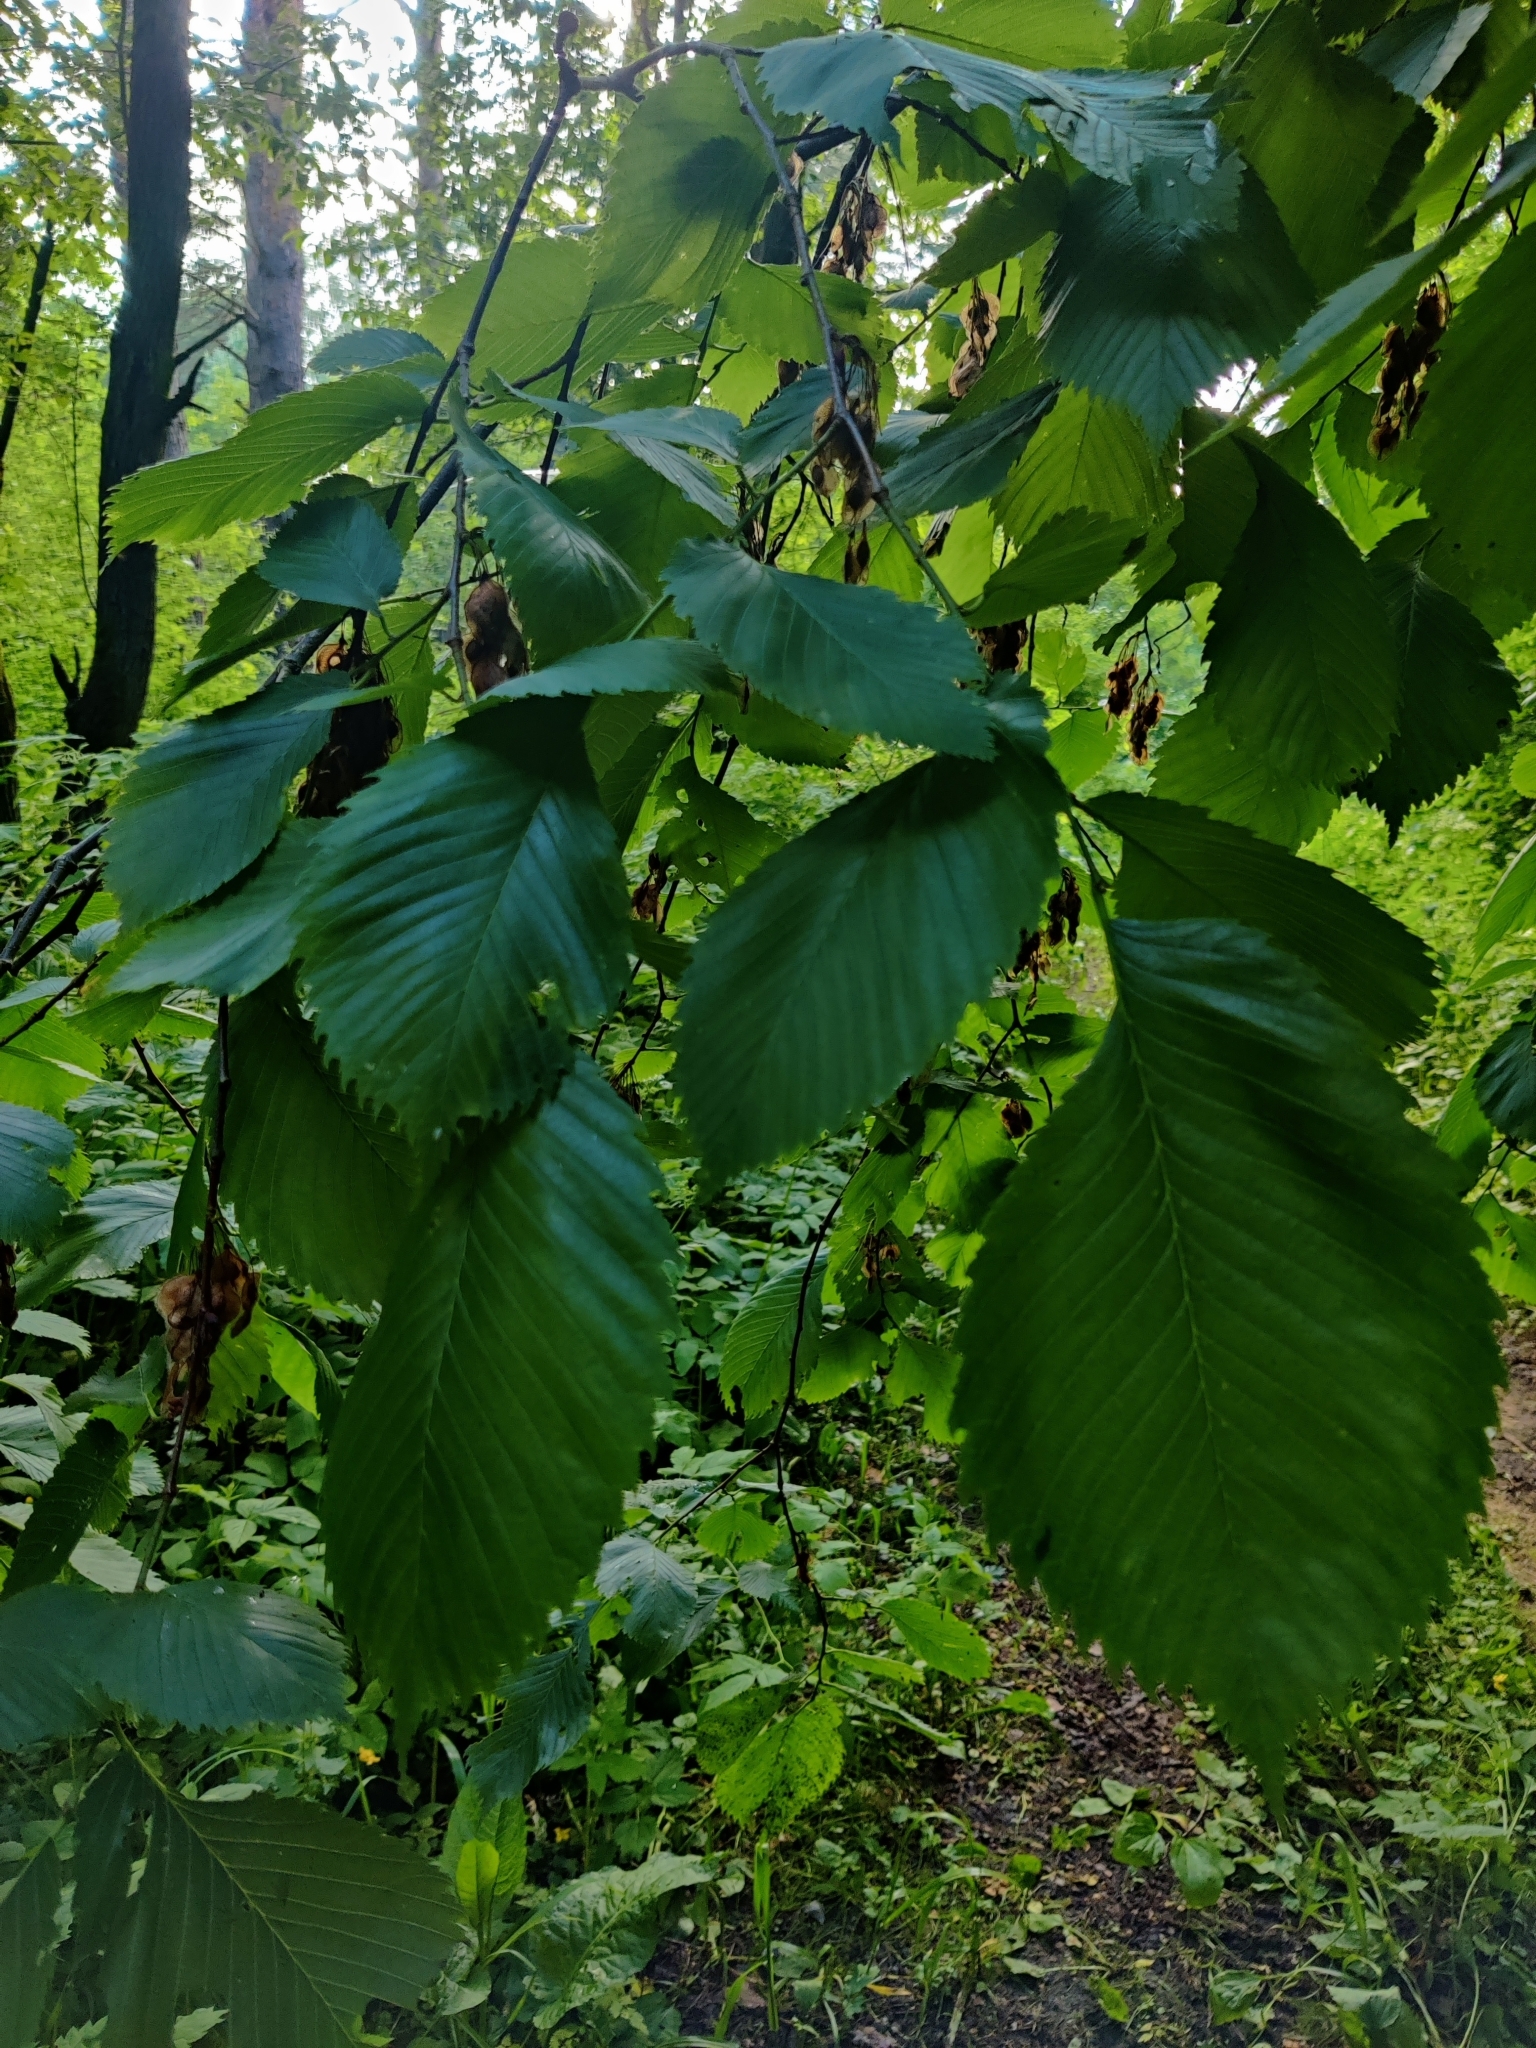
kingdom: Plantae
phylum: Tracheophyta
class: Magnoliopsida
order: Rosales
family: Ulmaceae
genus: Ulmus
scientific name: Ulmus laevis
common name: European white-elm
